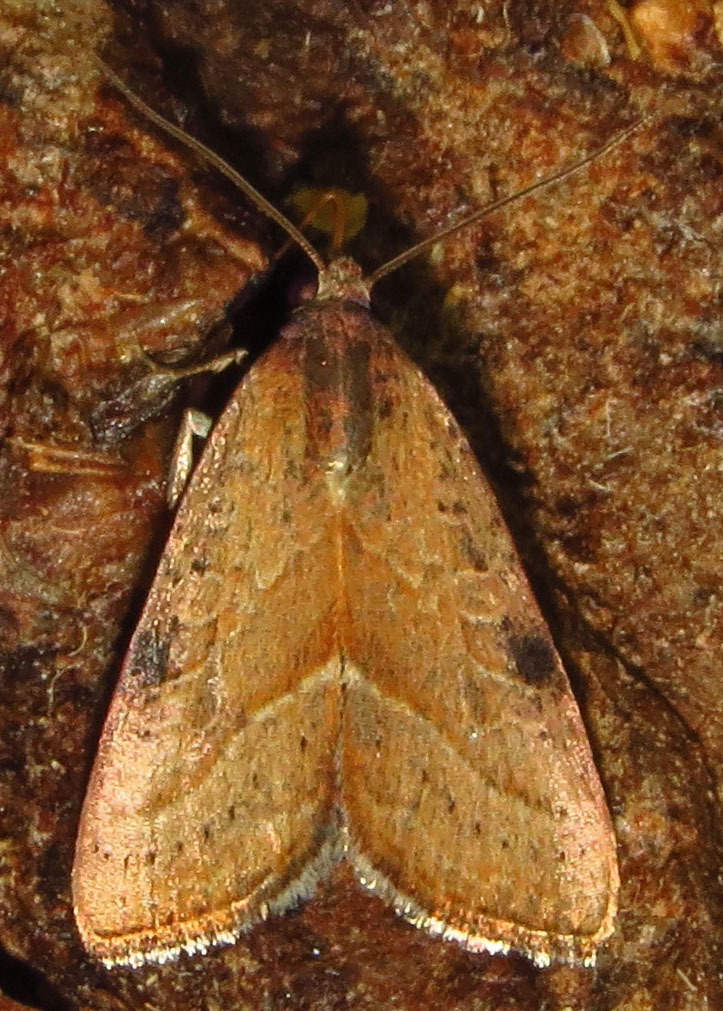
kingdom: Animalia
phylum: Arthropoda
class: Insecta
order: Lepidoptera
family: Noctuidae
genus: Galgula
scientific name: Galgula partita
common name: Wedgeling
